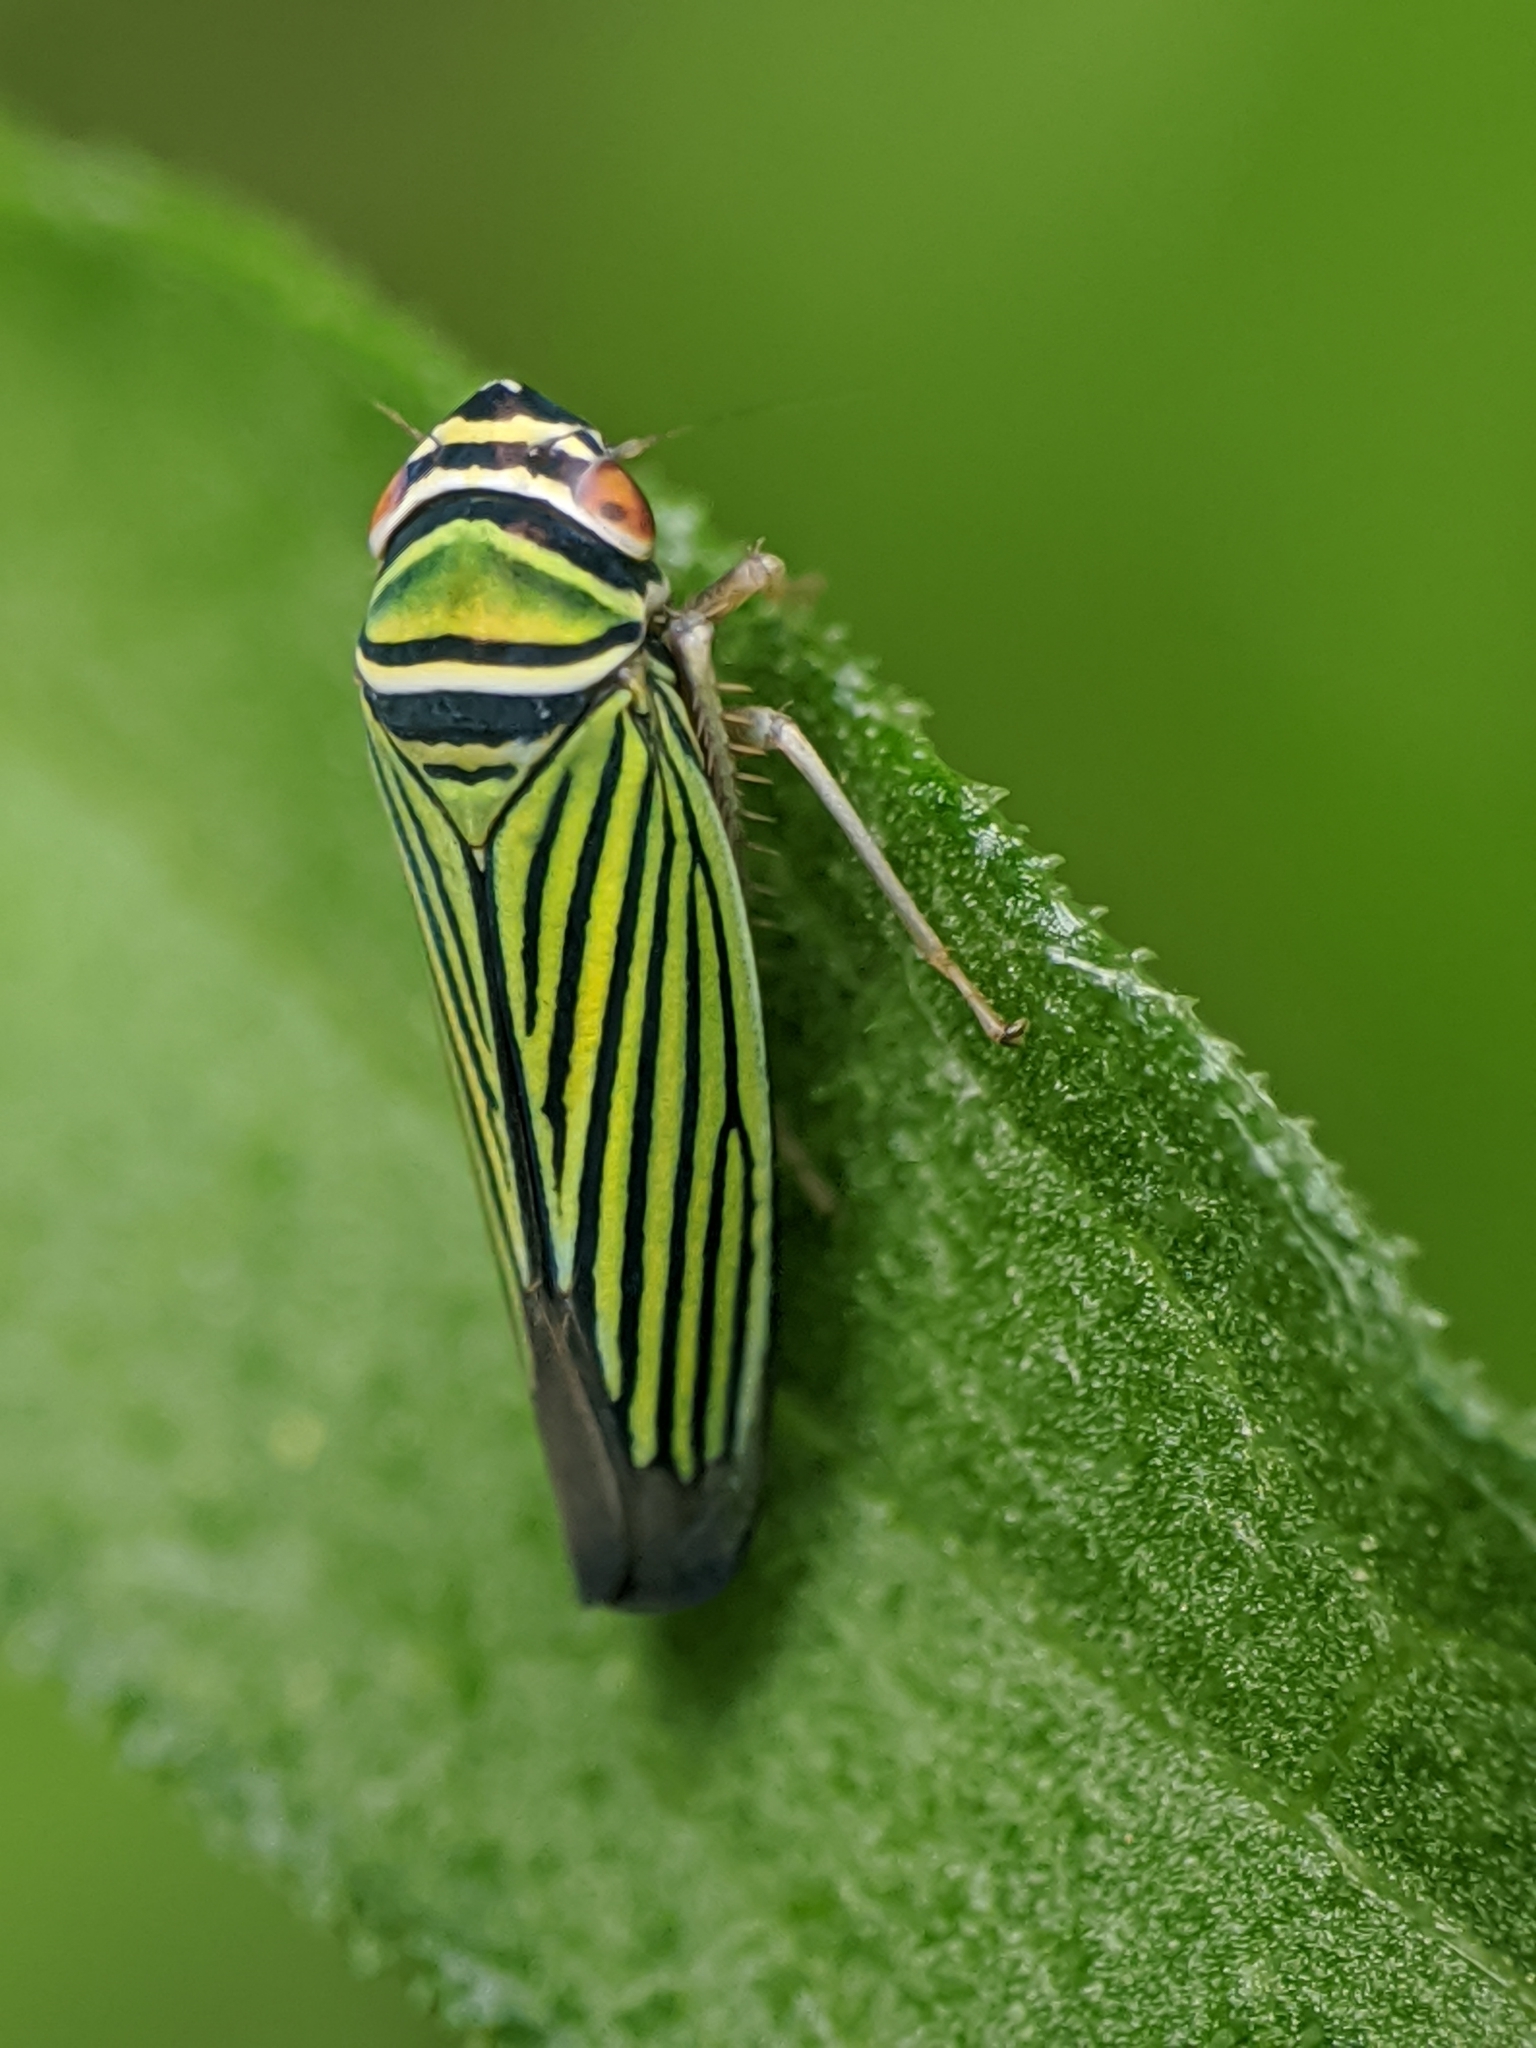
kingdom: Animalia
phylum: Arthropoda
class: Insecta
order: Hemiptera
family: Cicadellidae
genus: Tylozygus
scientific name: Tylozygus bifidus
